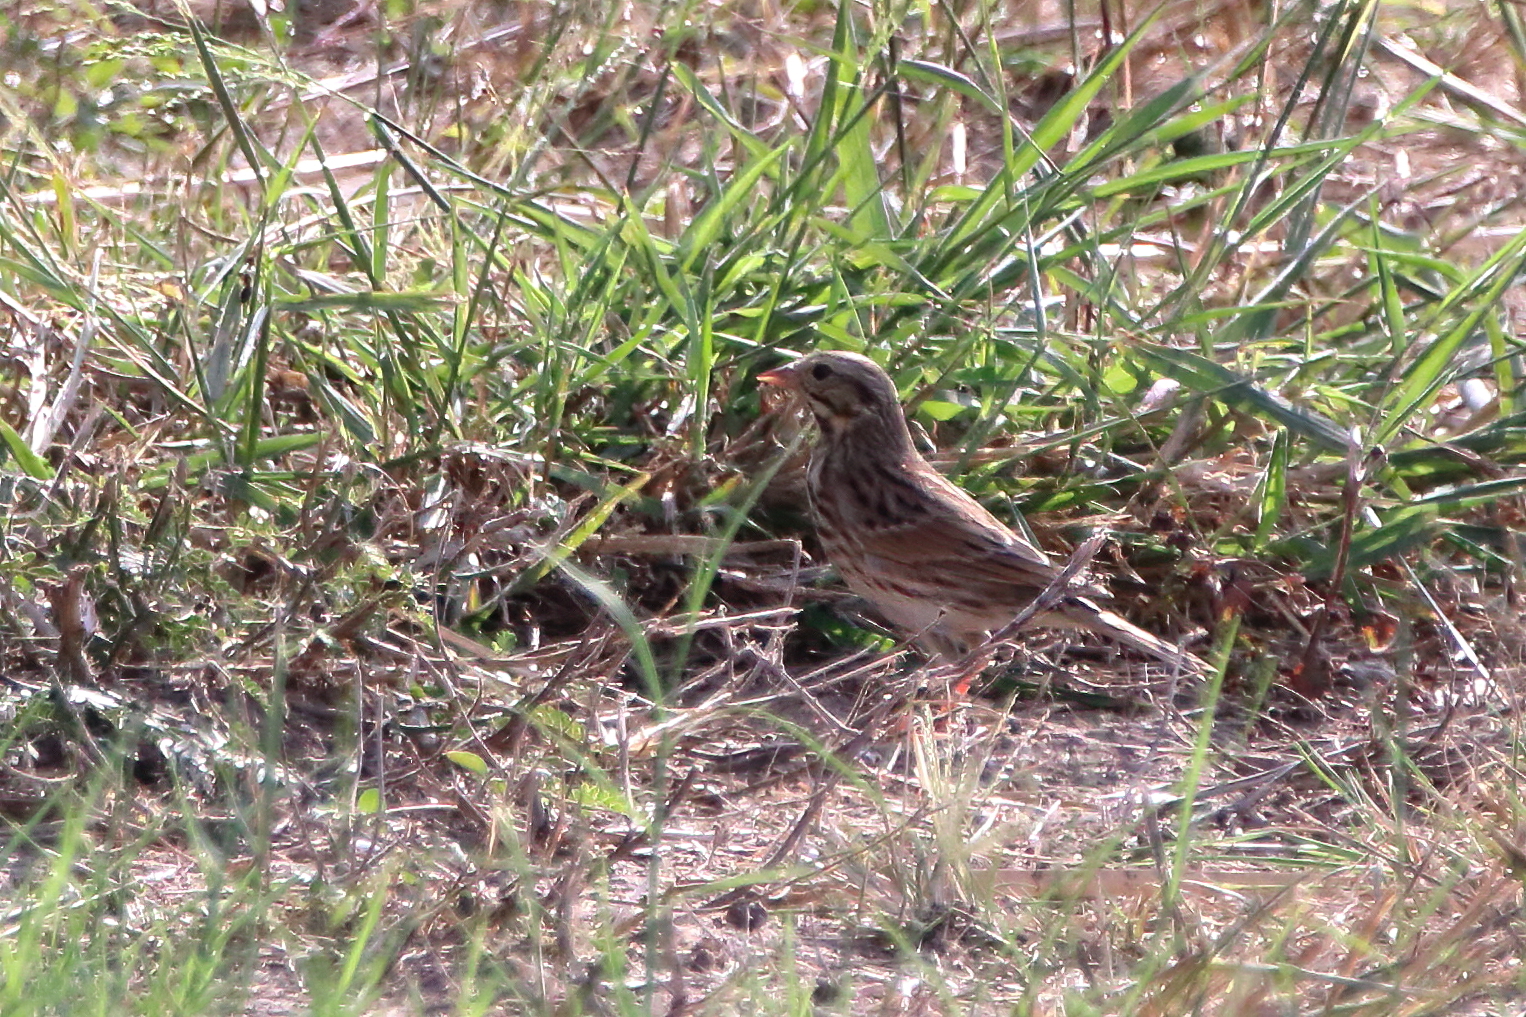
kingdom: Animalia
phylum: Chordata
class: Aves
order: Passeriformes
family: Passerellidae
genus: Passerculus
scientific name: Passerculus sandwichensis
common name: Savannah sparrow
